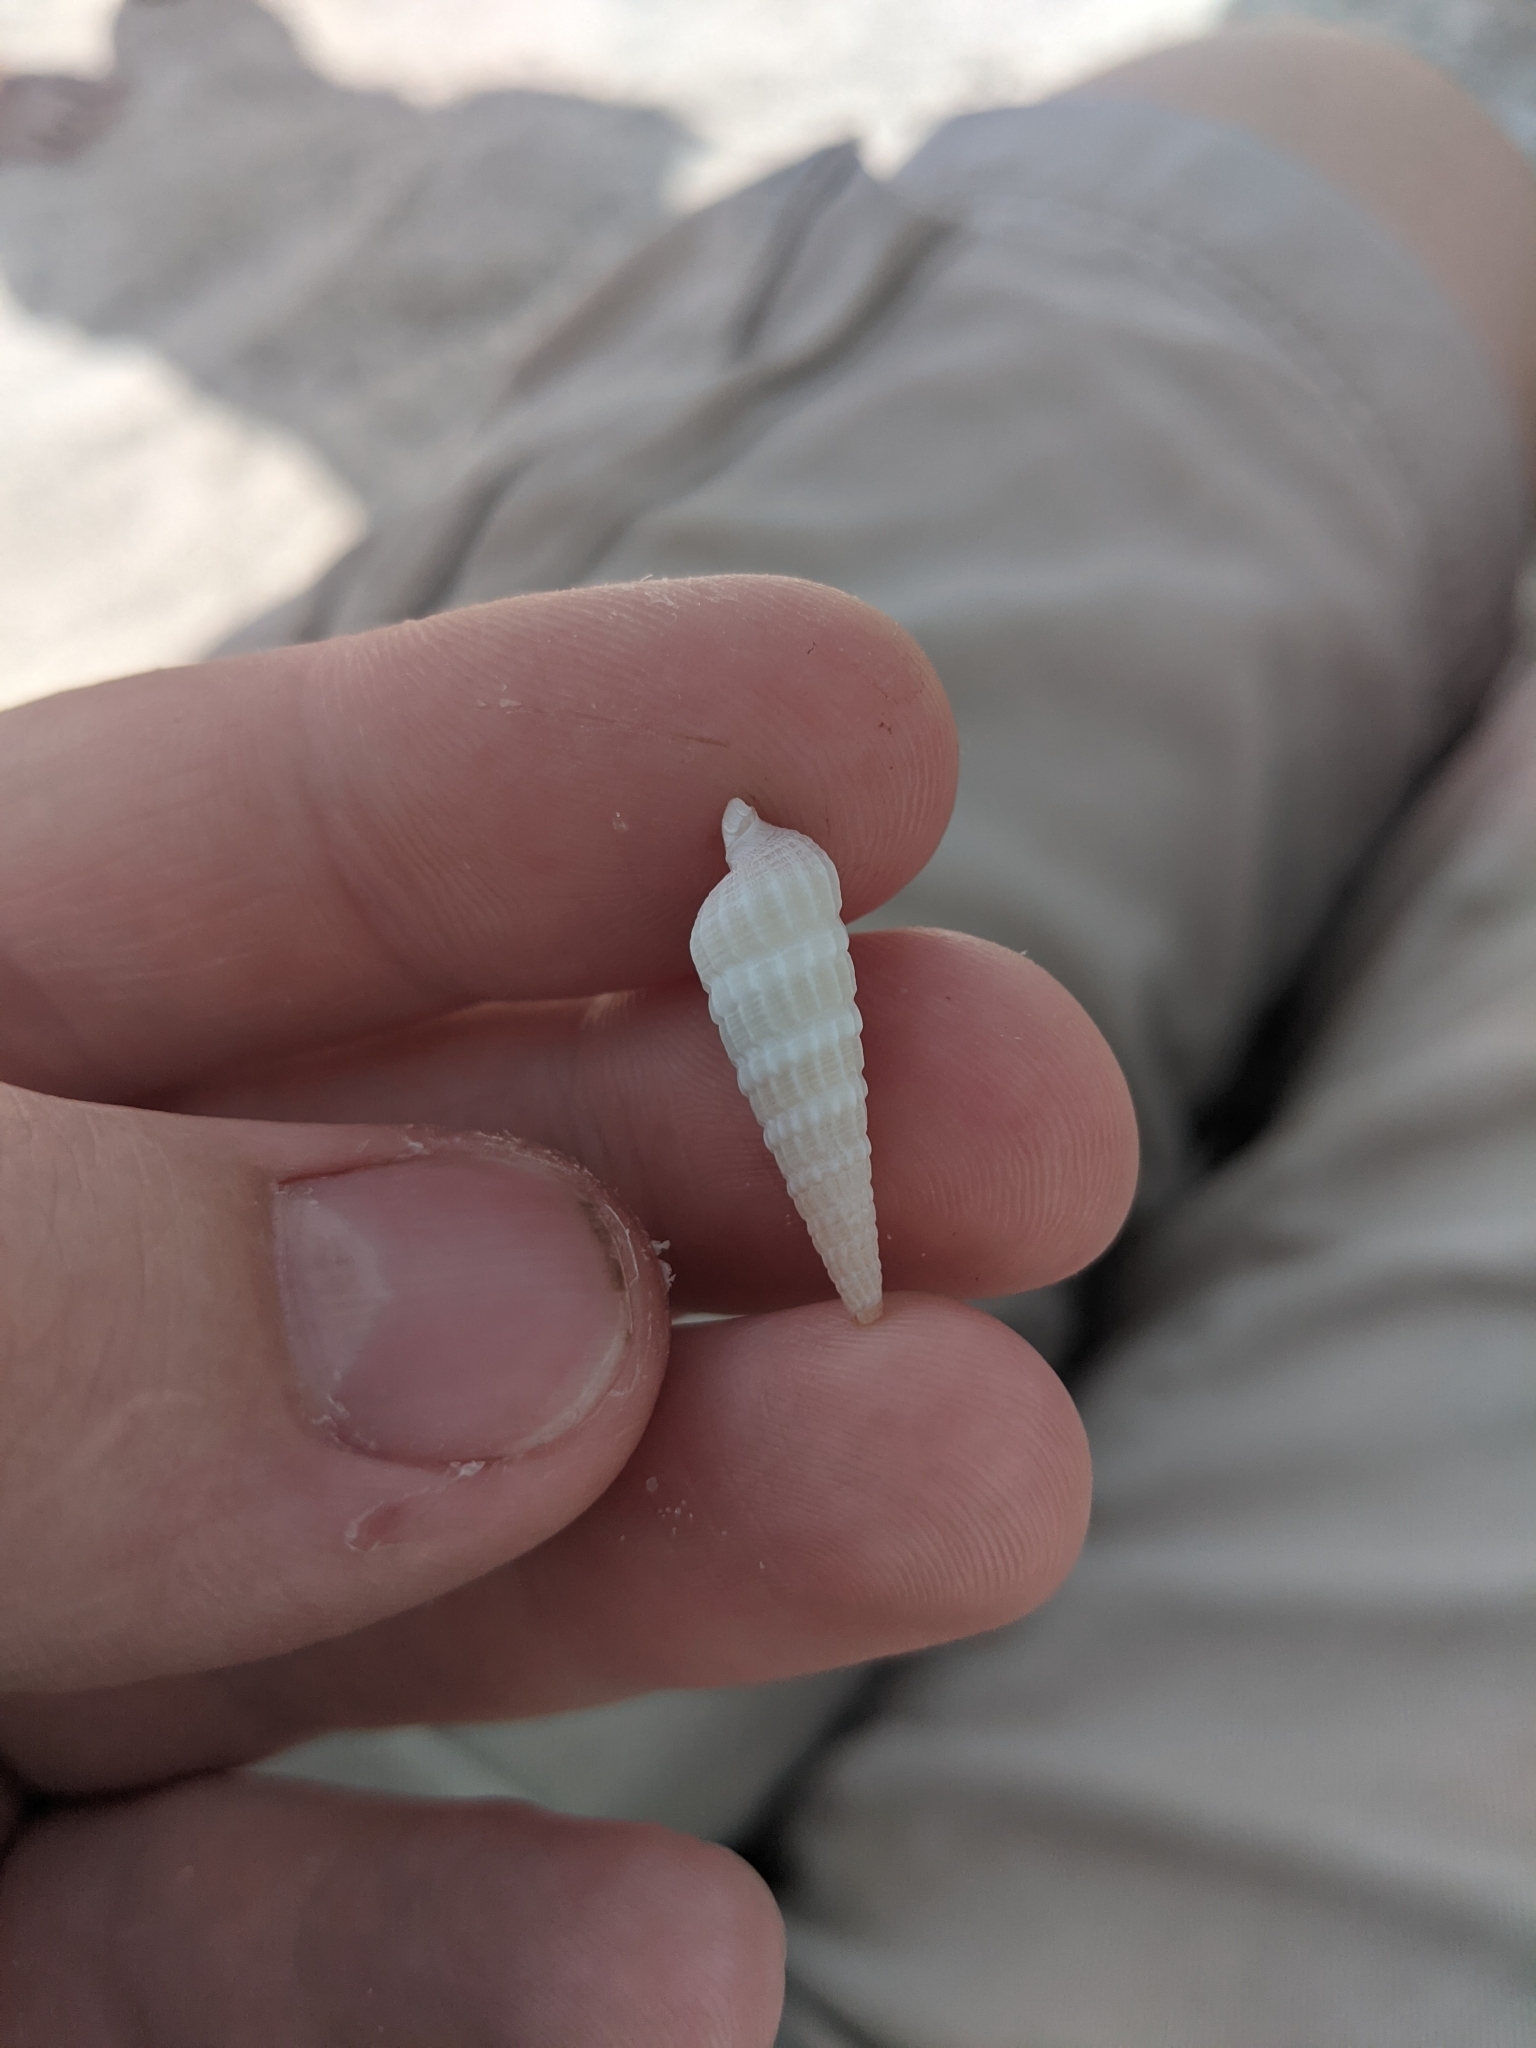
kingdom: Animalia
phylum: Mollusca
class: Gastropoda
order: Neogastropoda
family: Terebridae
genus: Neoterebra
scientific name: Neoterebra dislocata
